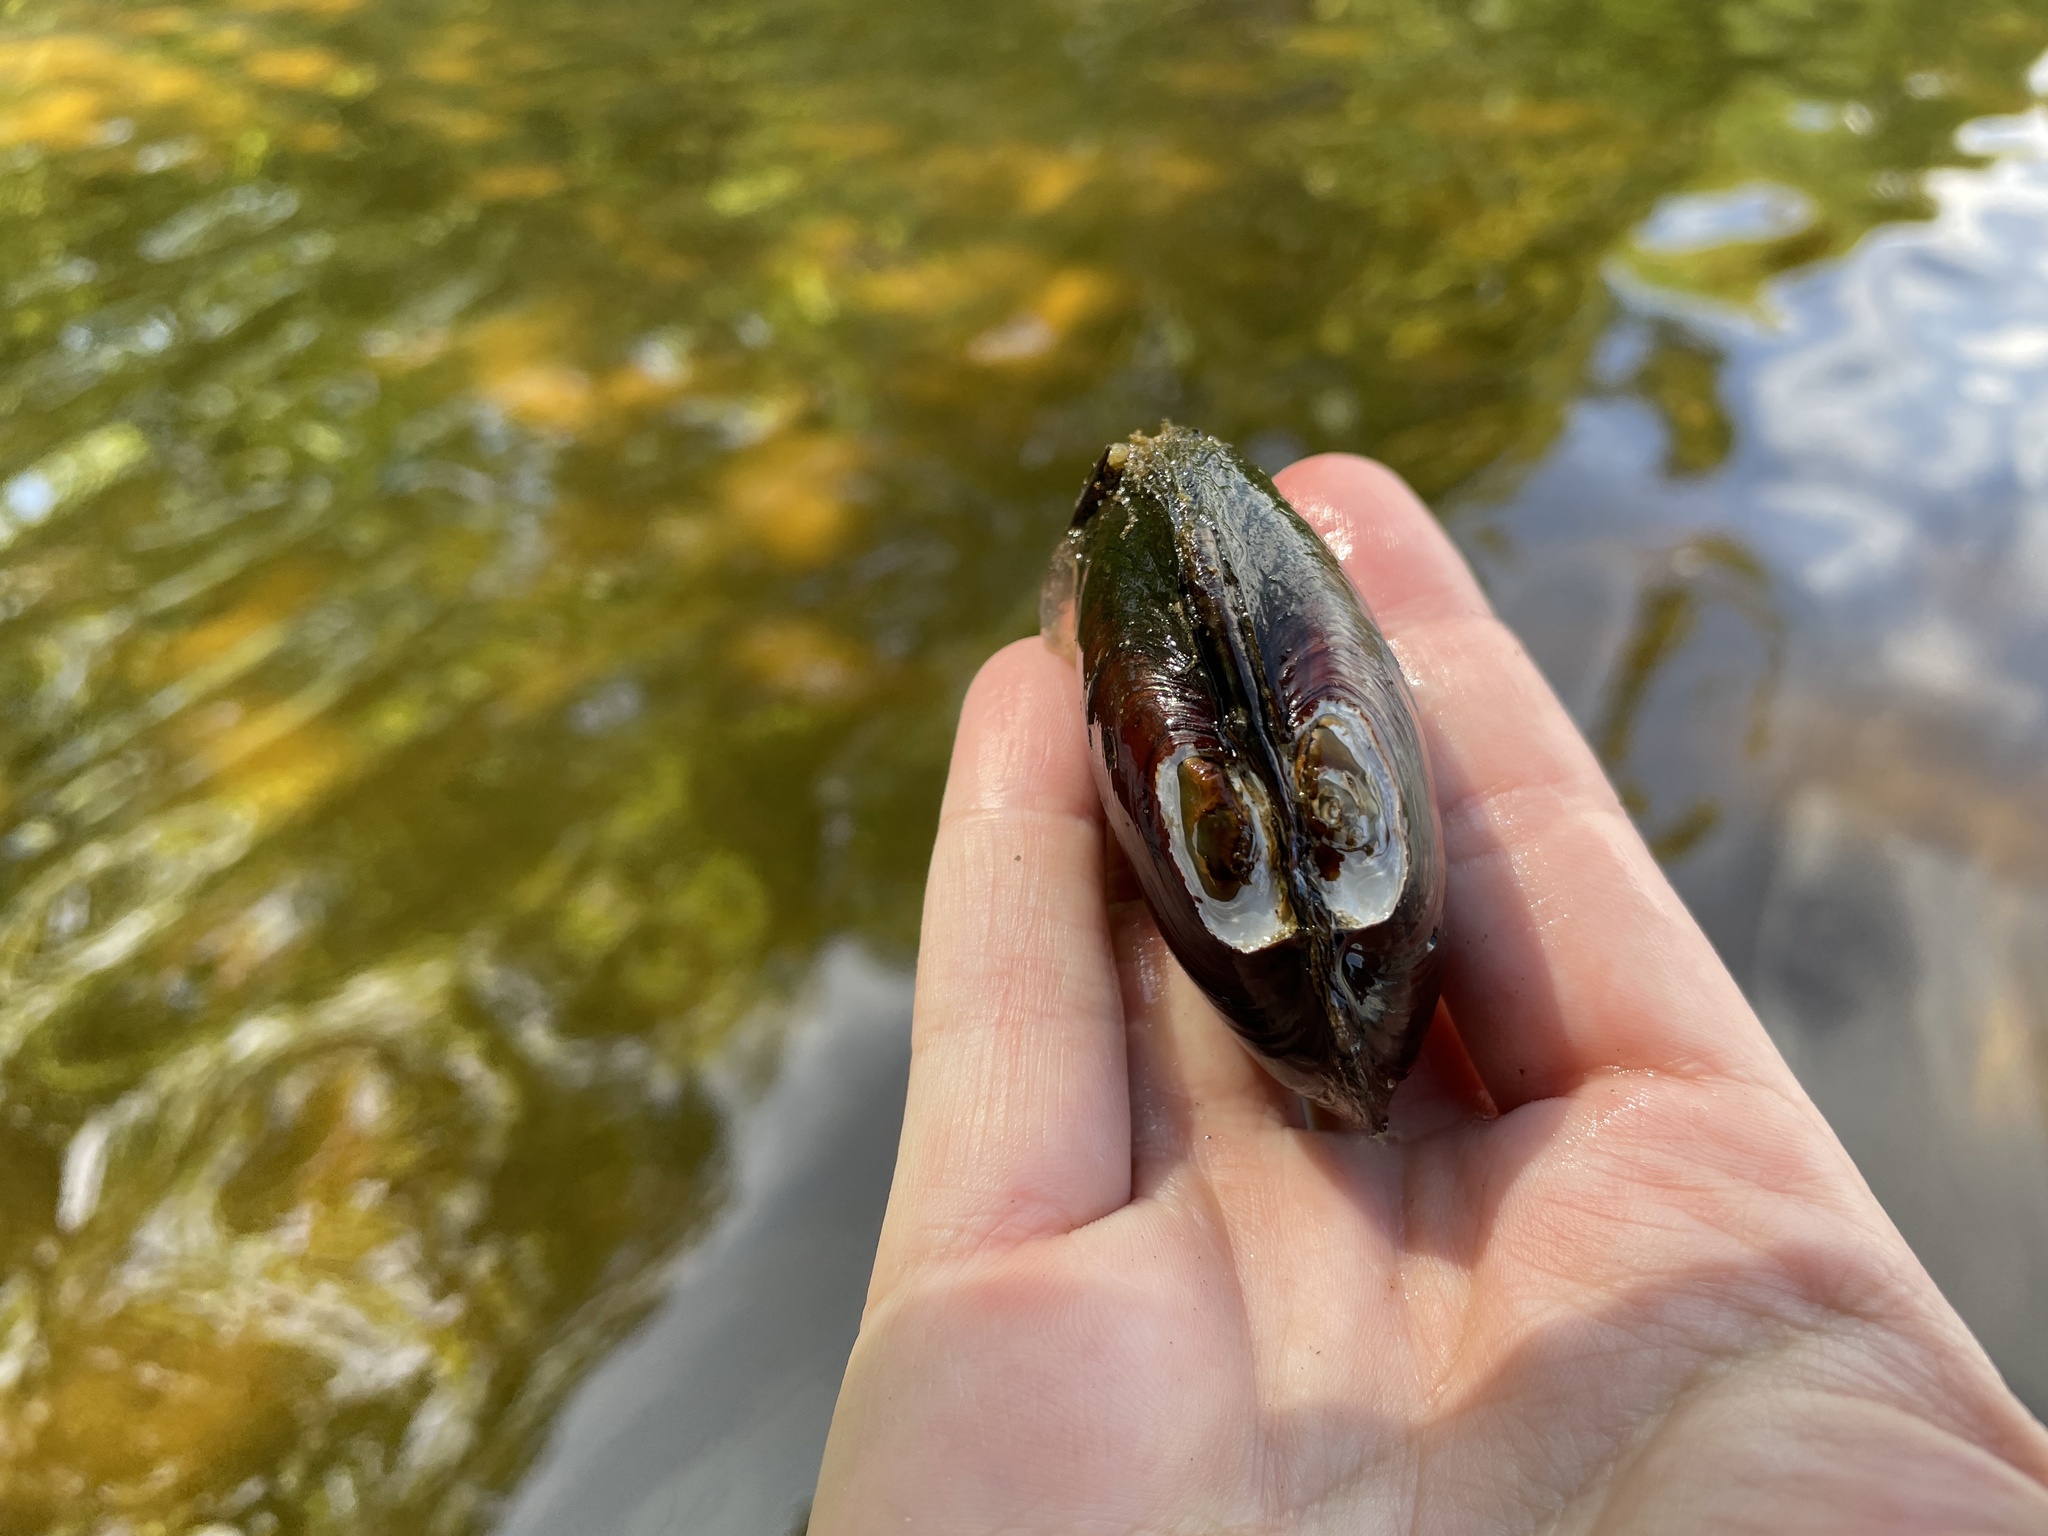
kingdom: Animalia
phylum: Mollusca
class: Bivalvia
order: Unionida
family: Unionidae
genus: Lampsilis
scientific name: Lampsilis siliquoidea
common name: Fatmucket
